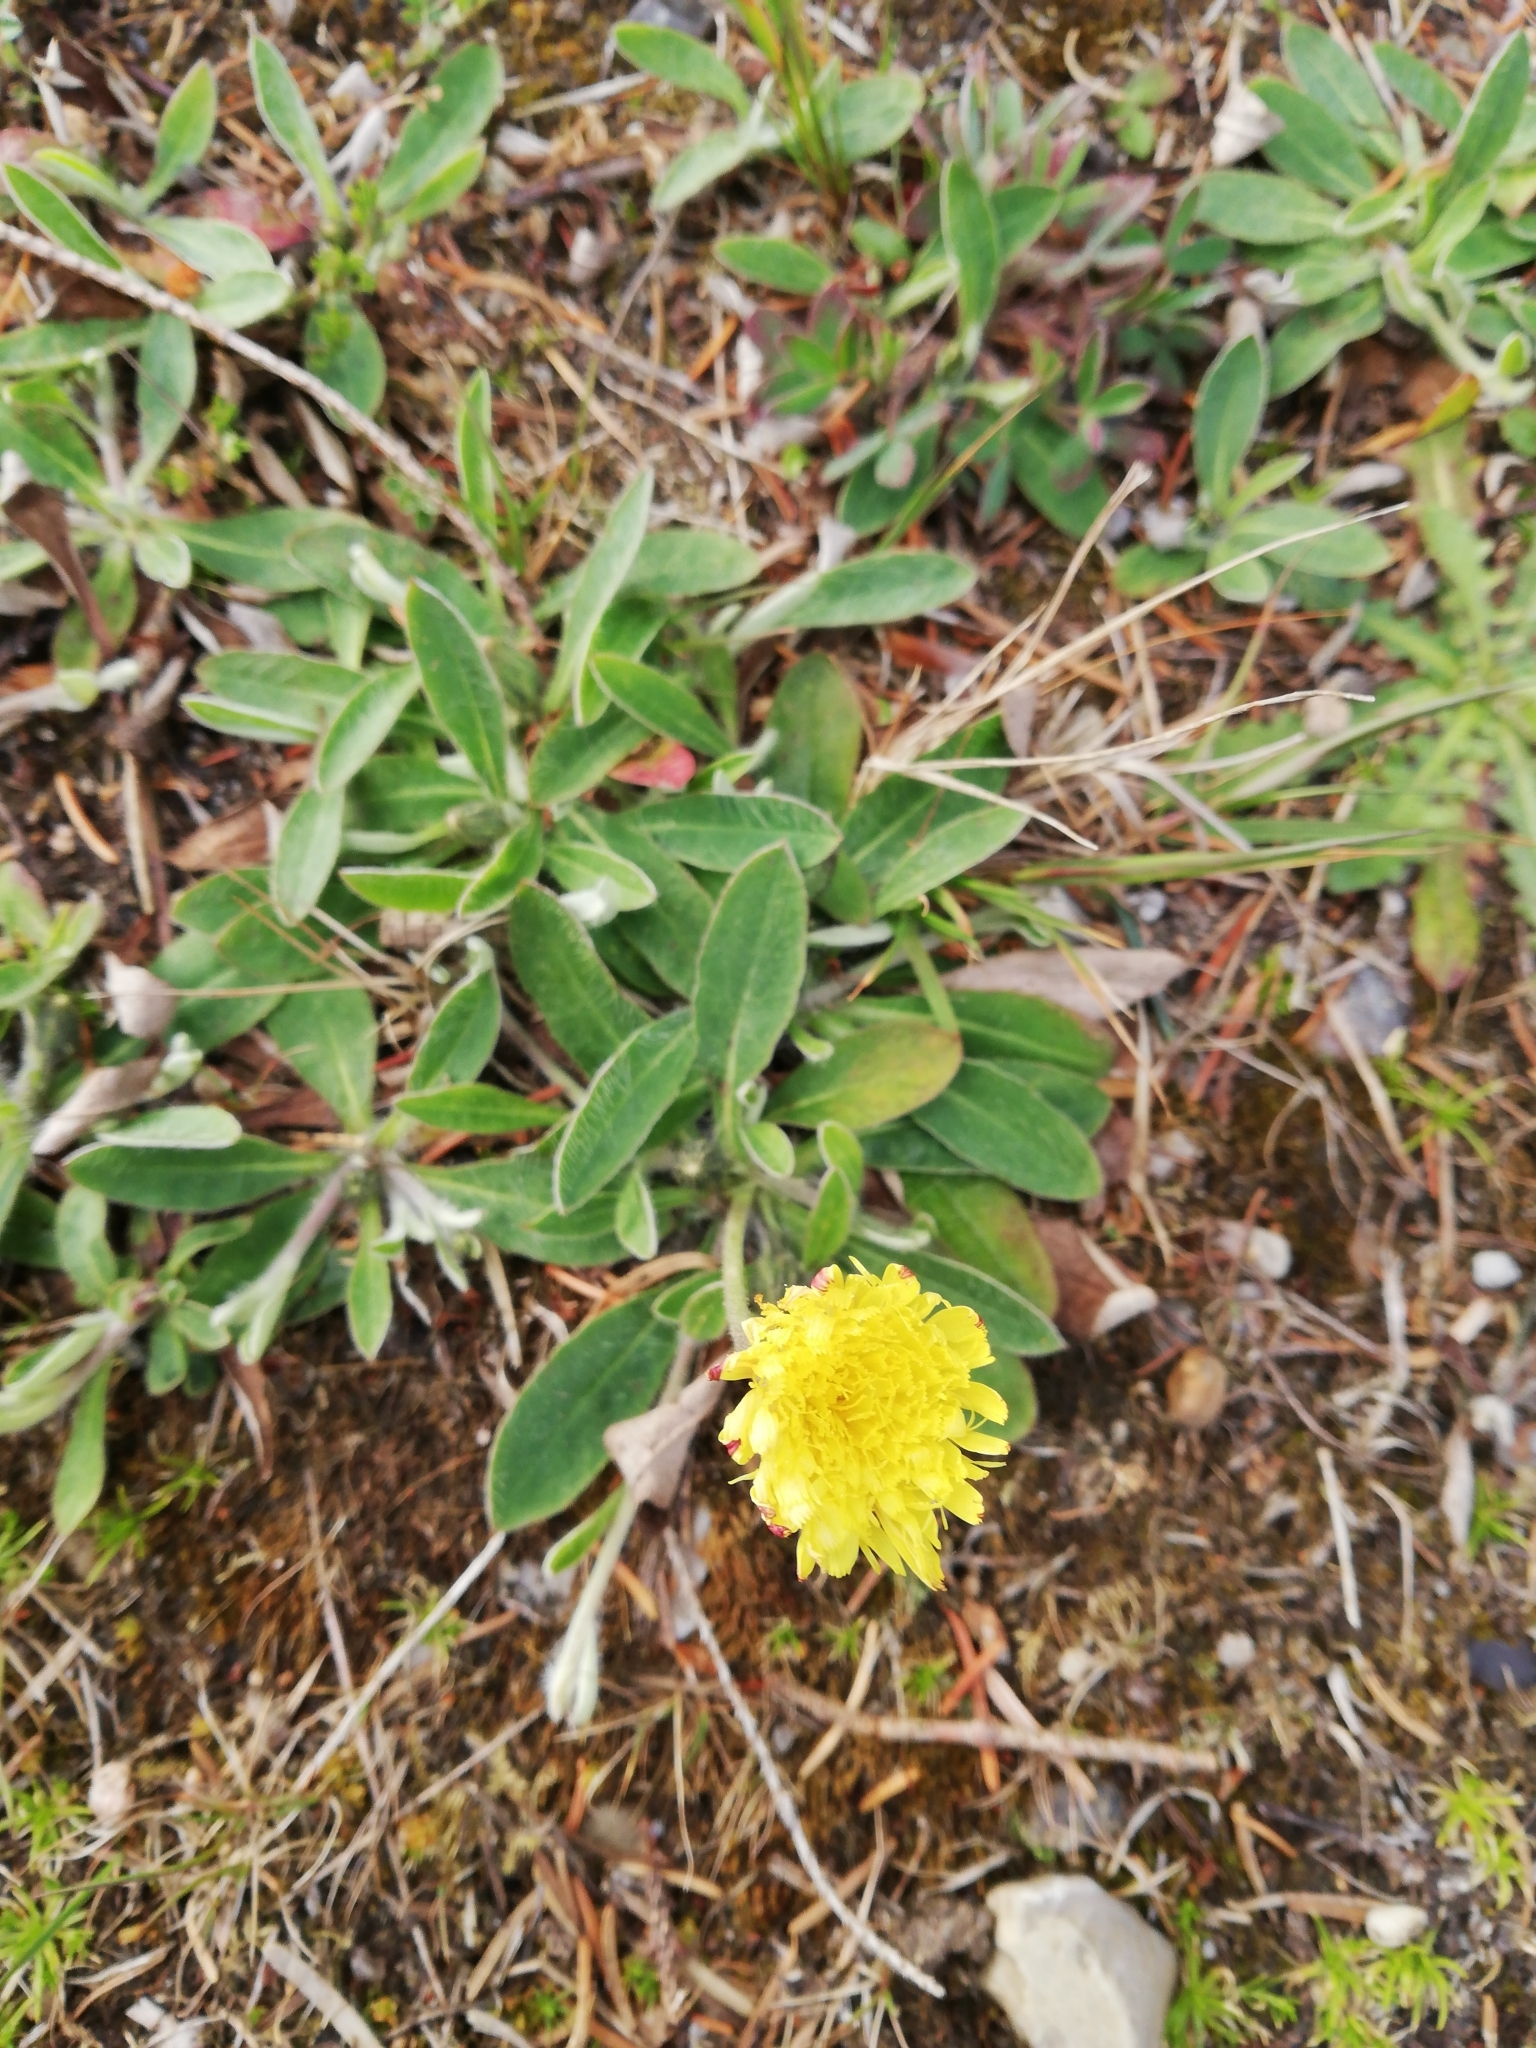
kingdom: Plantae
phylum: Tracheophyta
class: Magnoliopsida
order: Asterales
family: Asteraceae
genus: Pilosella
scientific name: Pilosella officinarum
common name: Mouse-ear hawkweed
